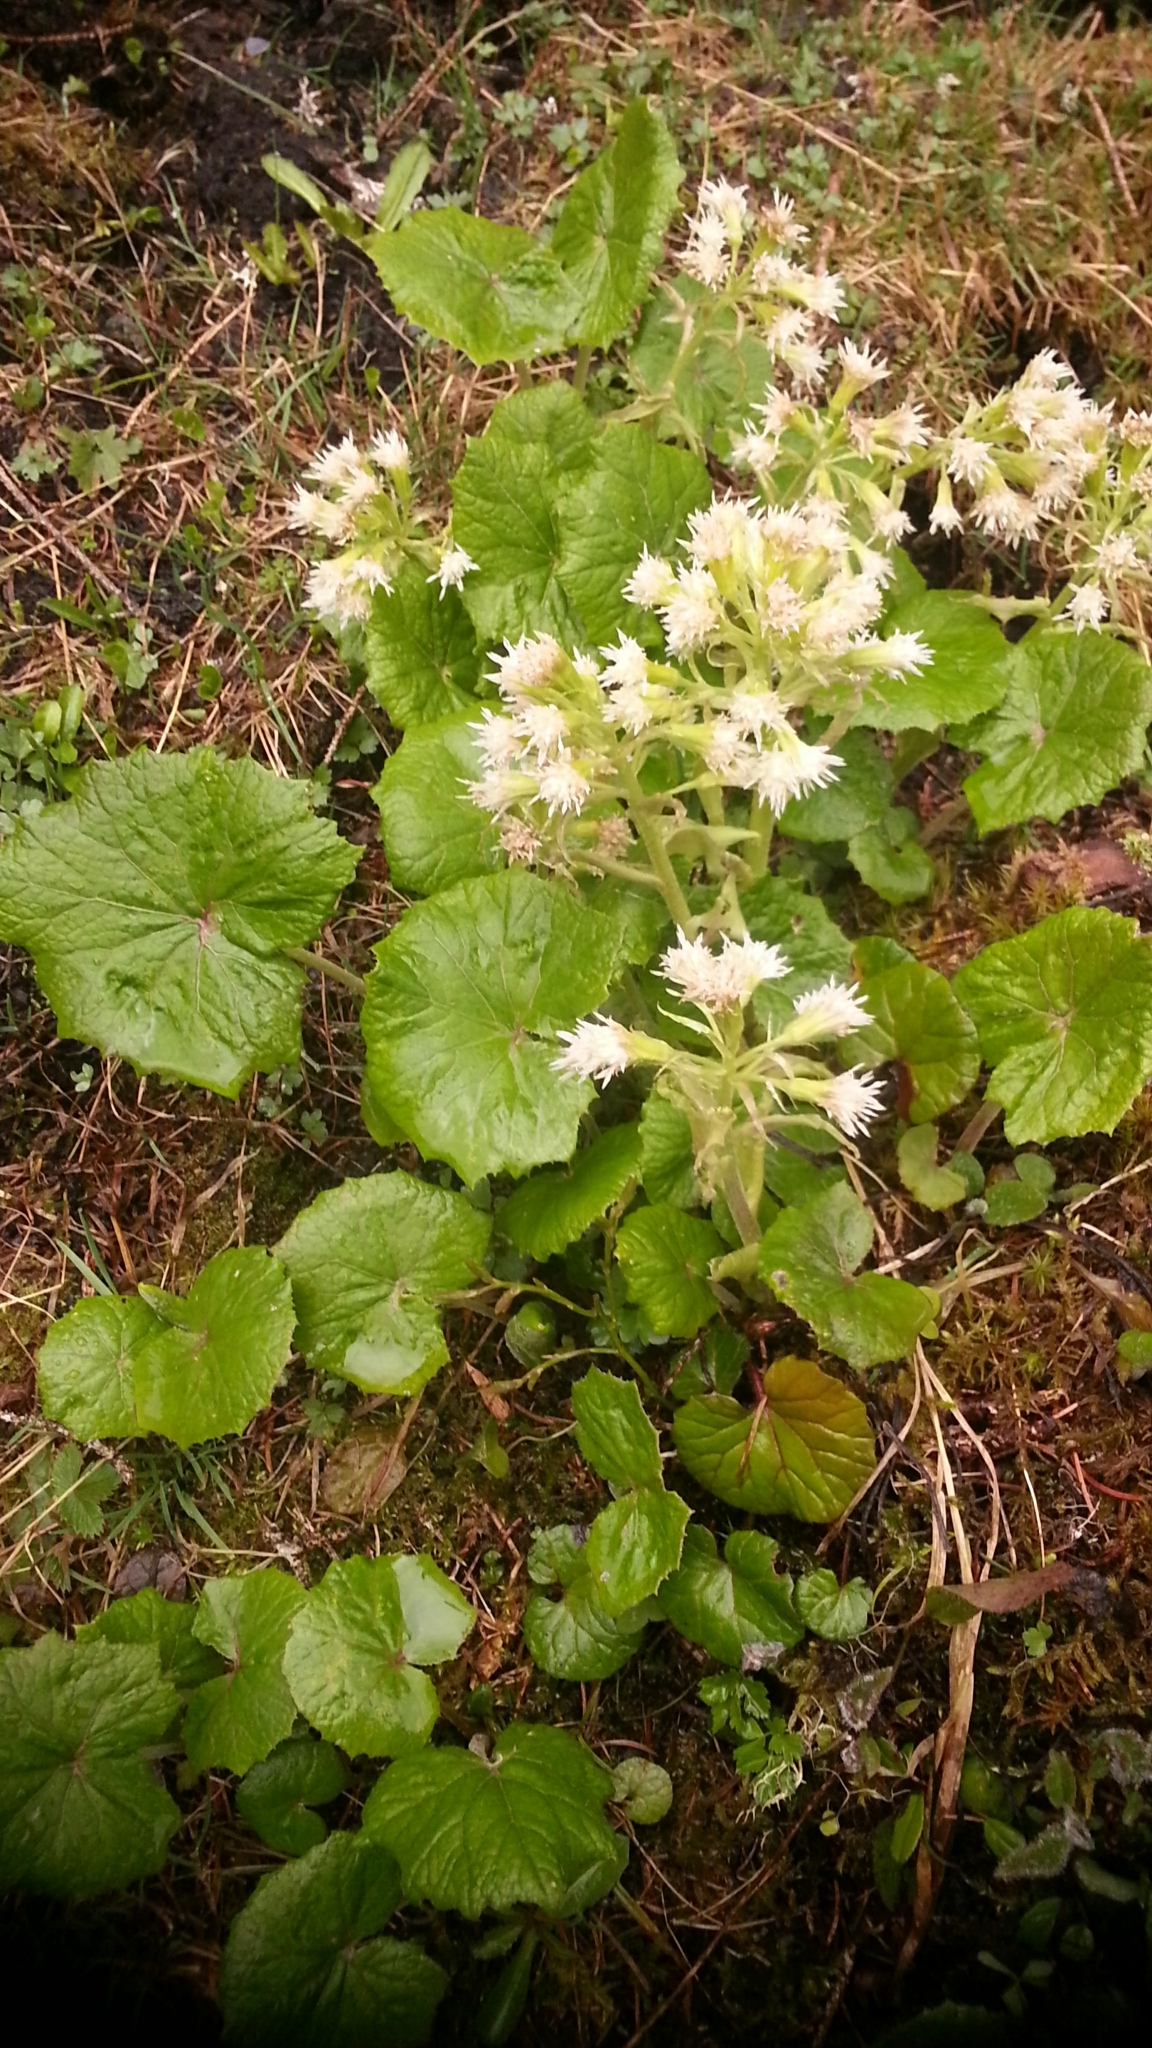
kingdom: Plantae
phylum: Tracheophyta
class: Magnoliopsida
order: Asterales
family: Asteraceae
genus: Petasites
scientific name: Petasites albus
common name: White butterbur
